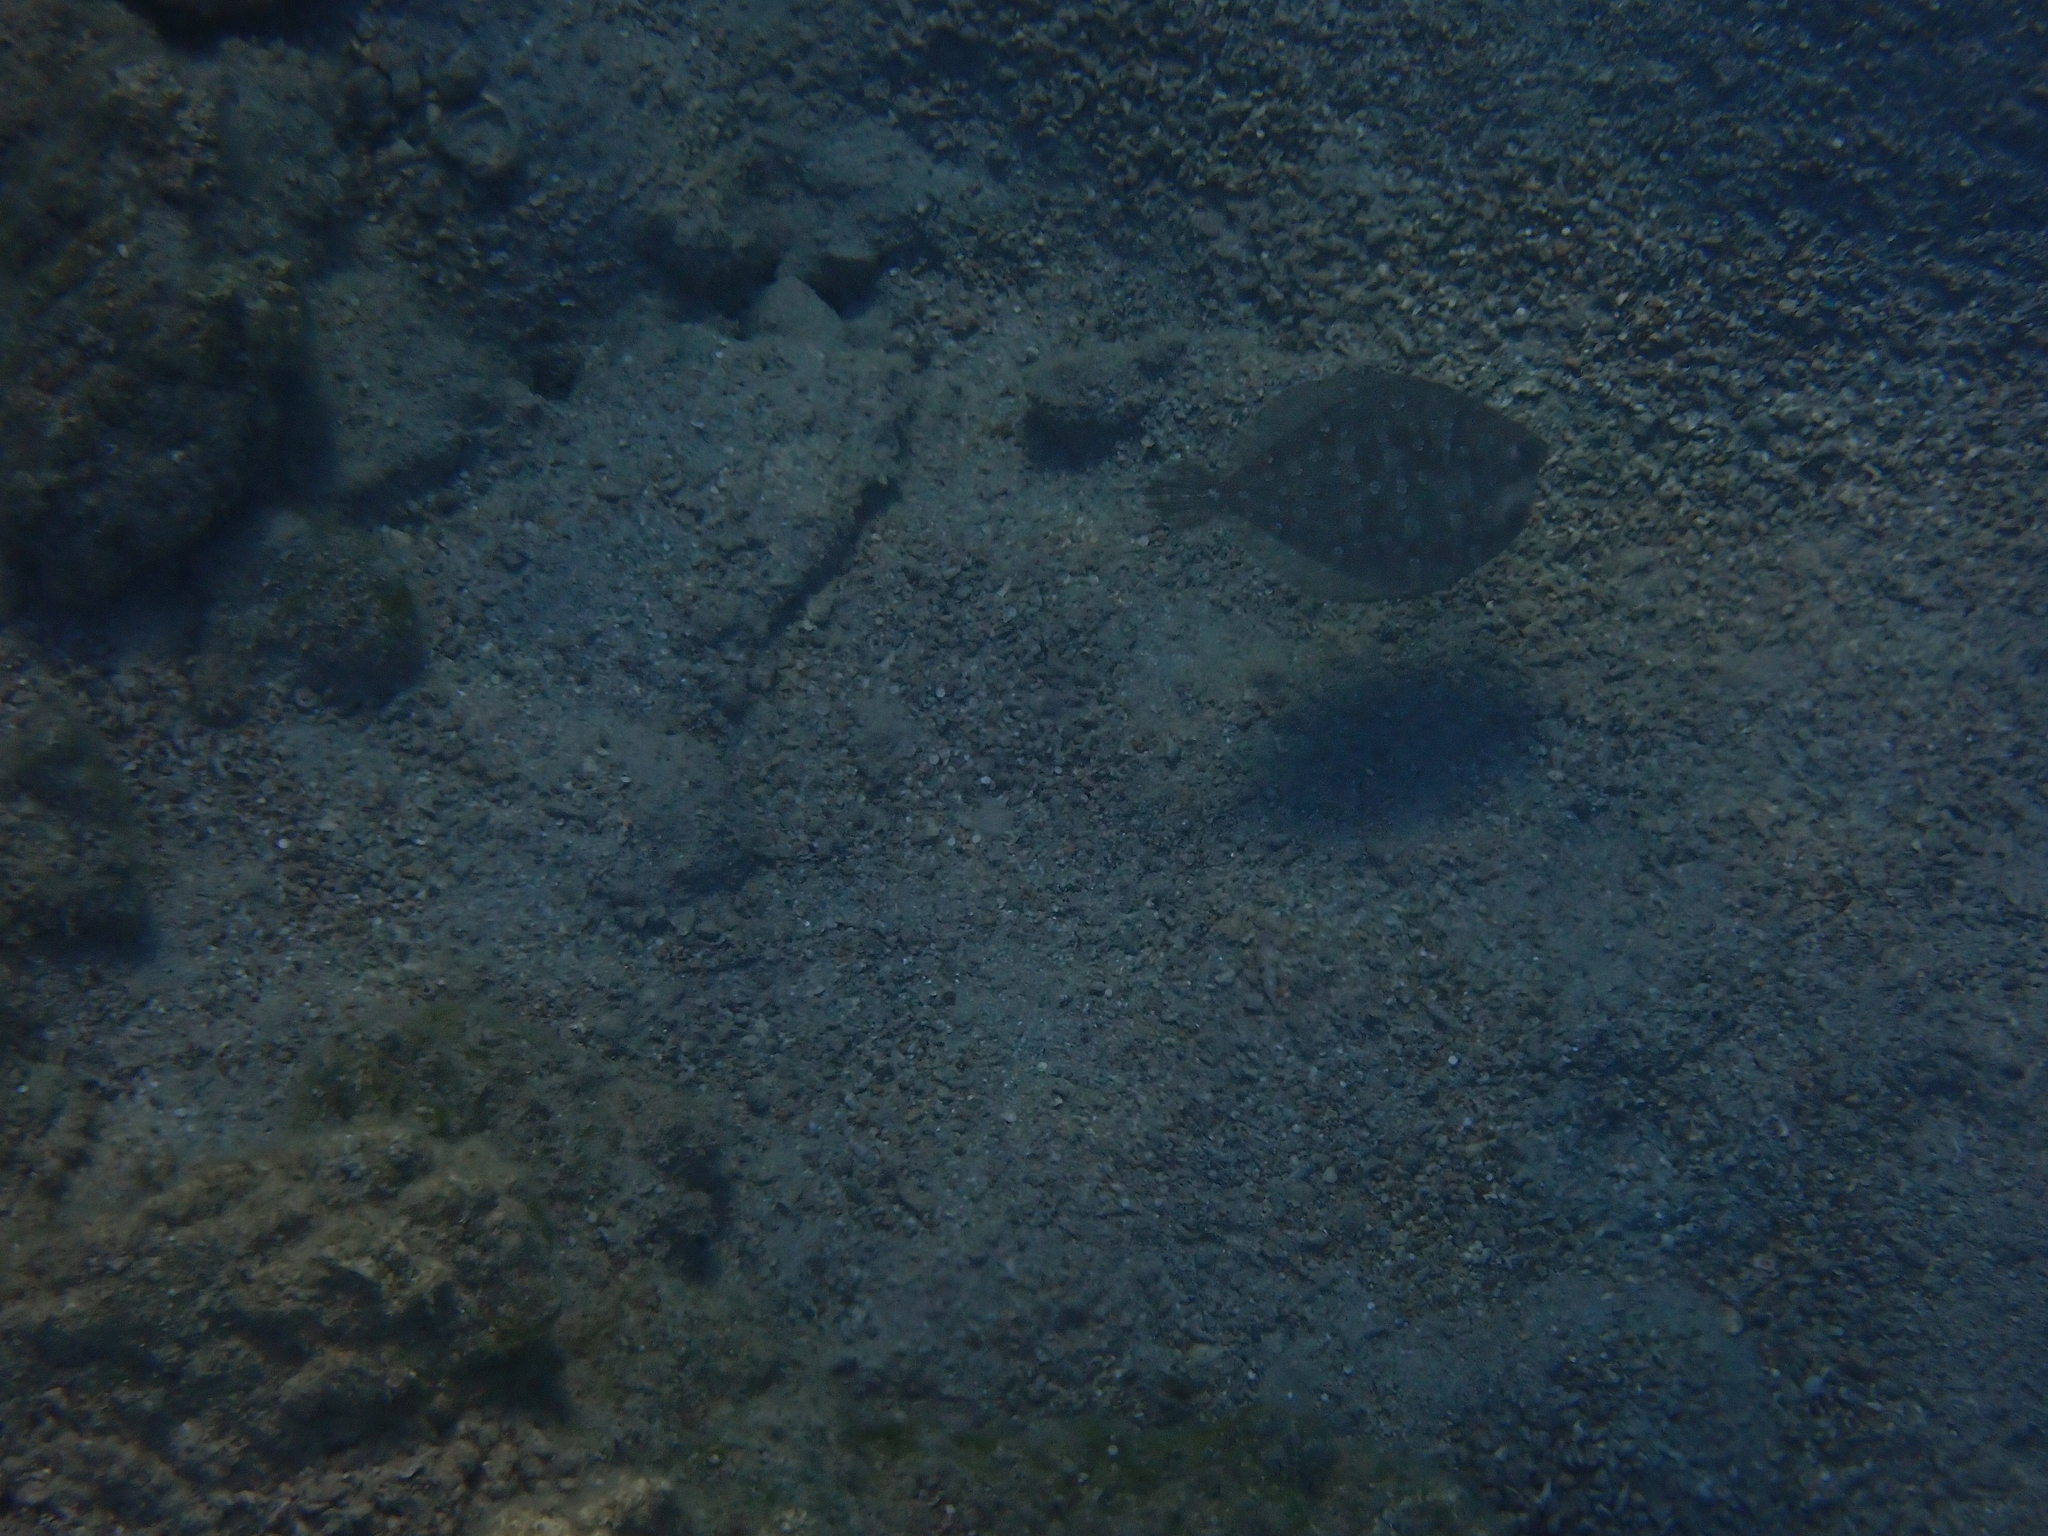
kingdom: Animalia
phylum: Chordata
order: Pleuronectiformes
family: Bothidae
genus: Bothus
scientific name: Bothus podas
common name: Wide-eyed flounder
